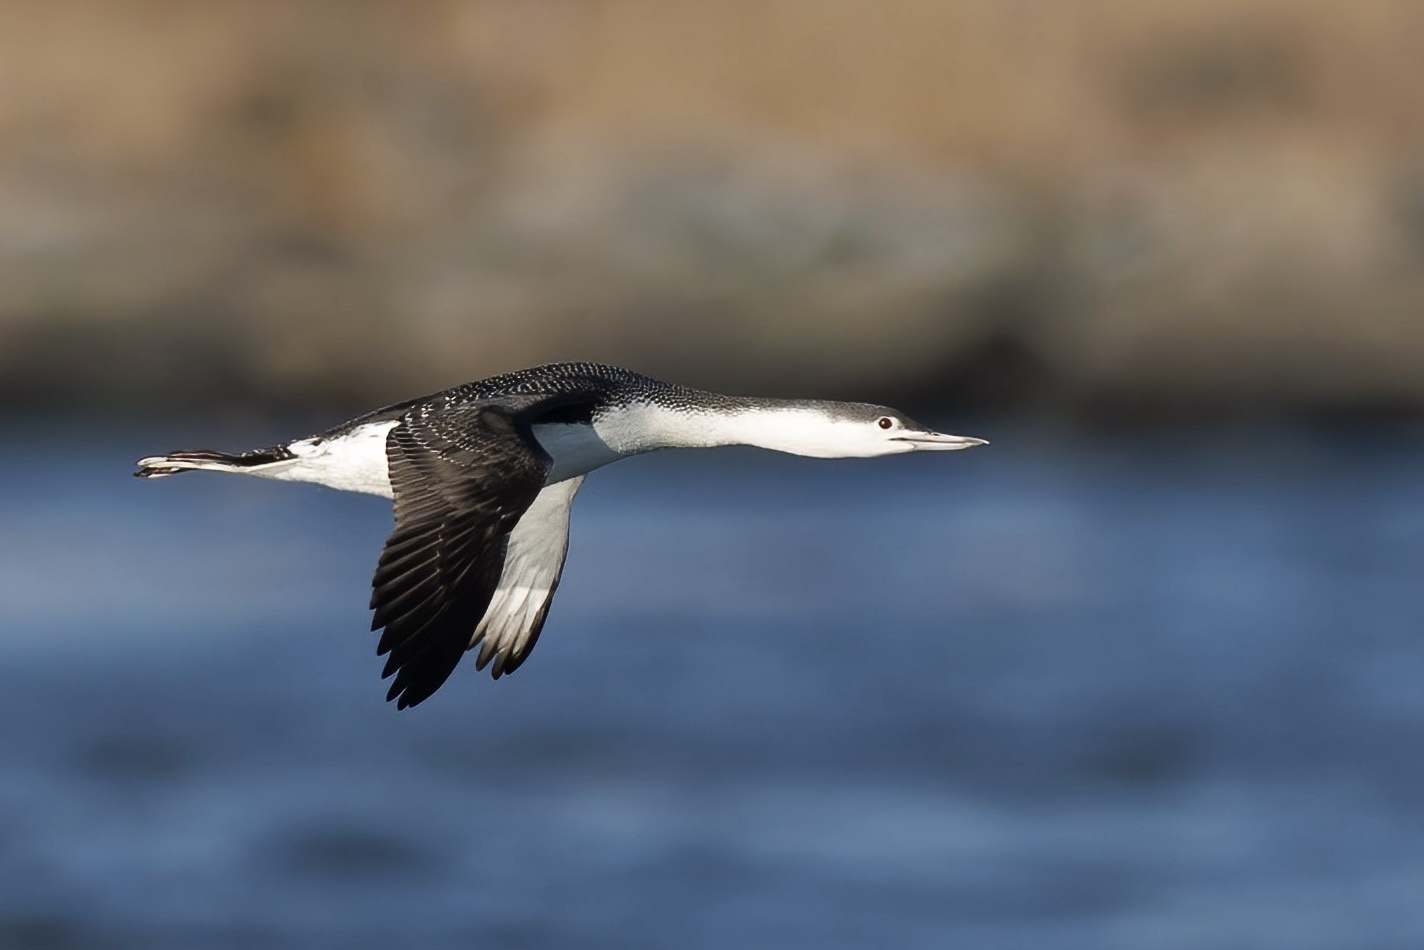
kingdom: Animalia
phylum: Chordata
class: Aves
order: Gaviiformes
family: Gaviidae
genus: Gavia
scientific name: Gavia stellata
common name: Red-throated loon
